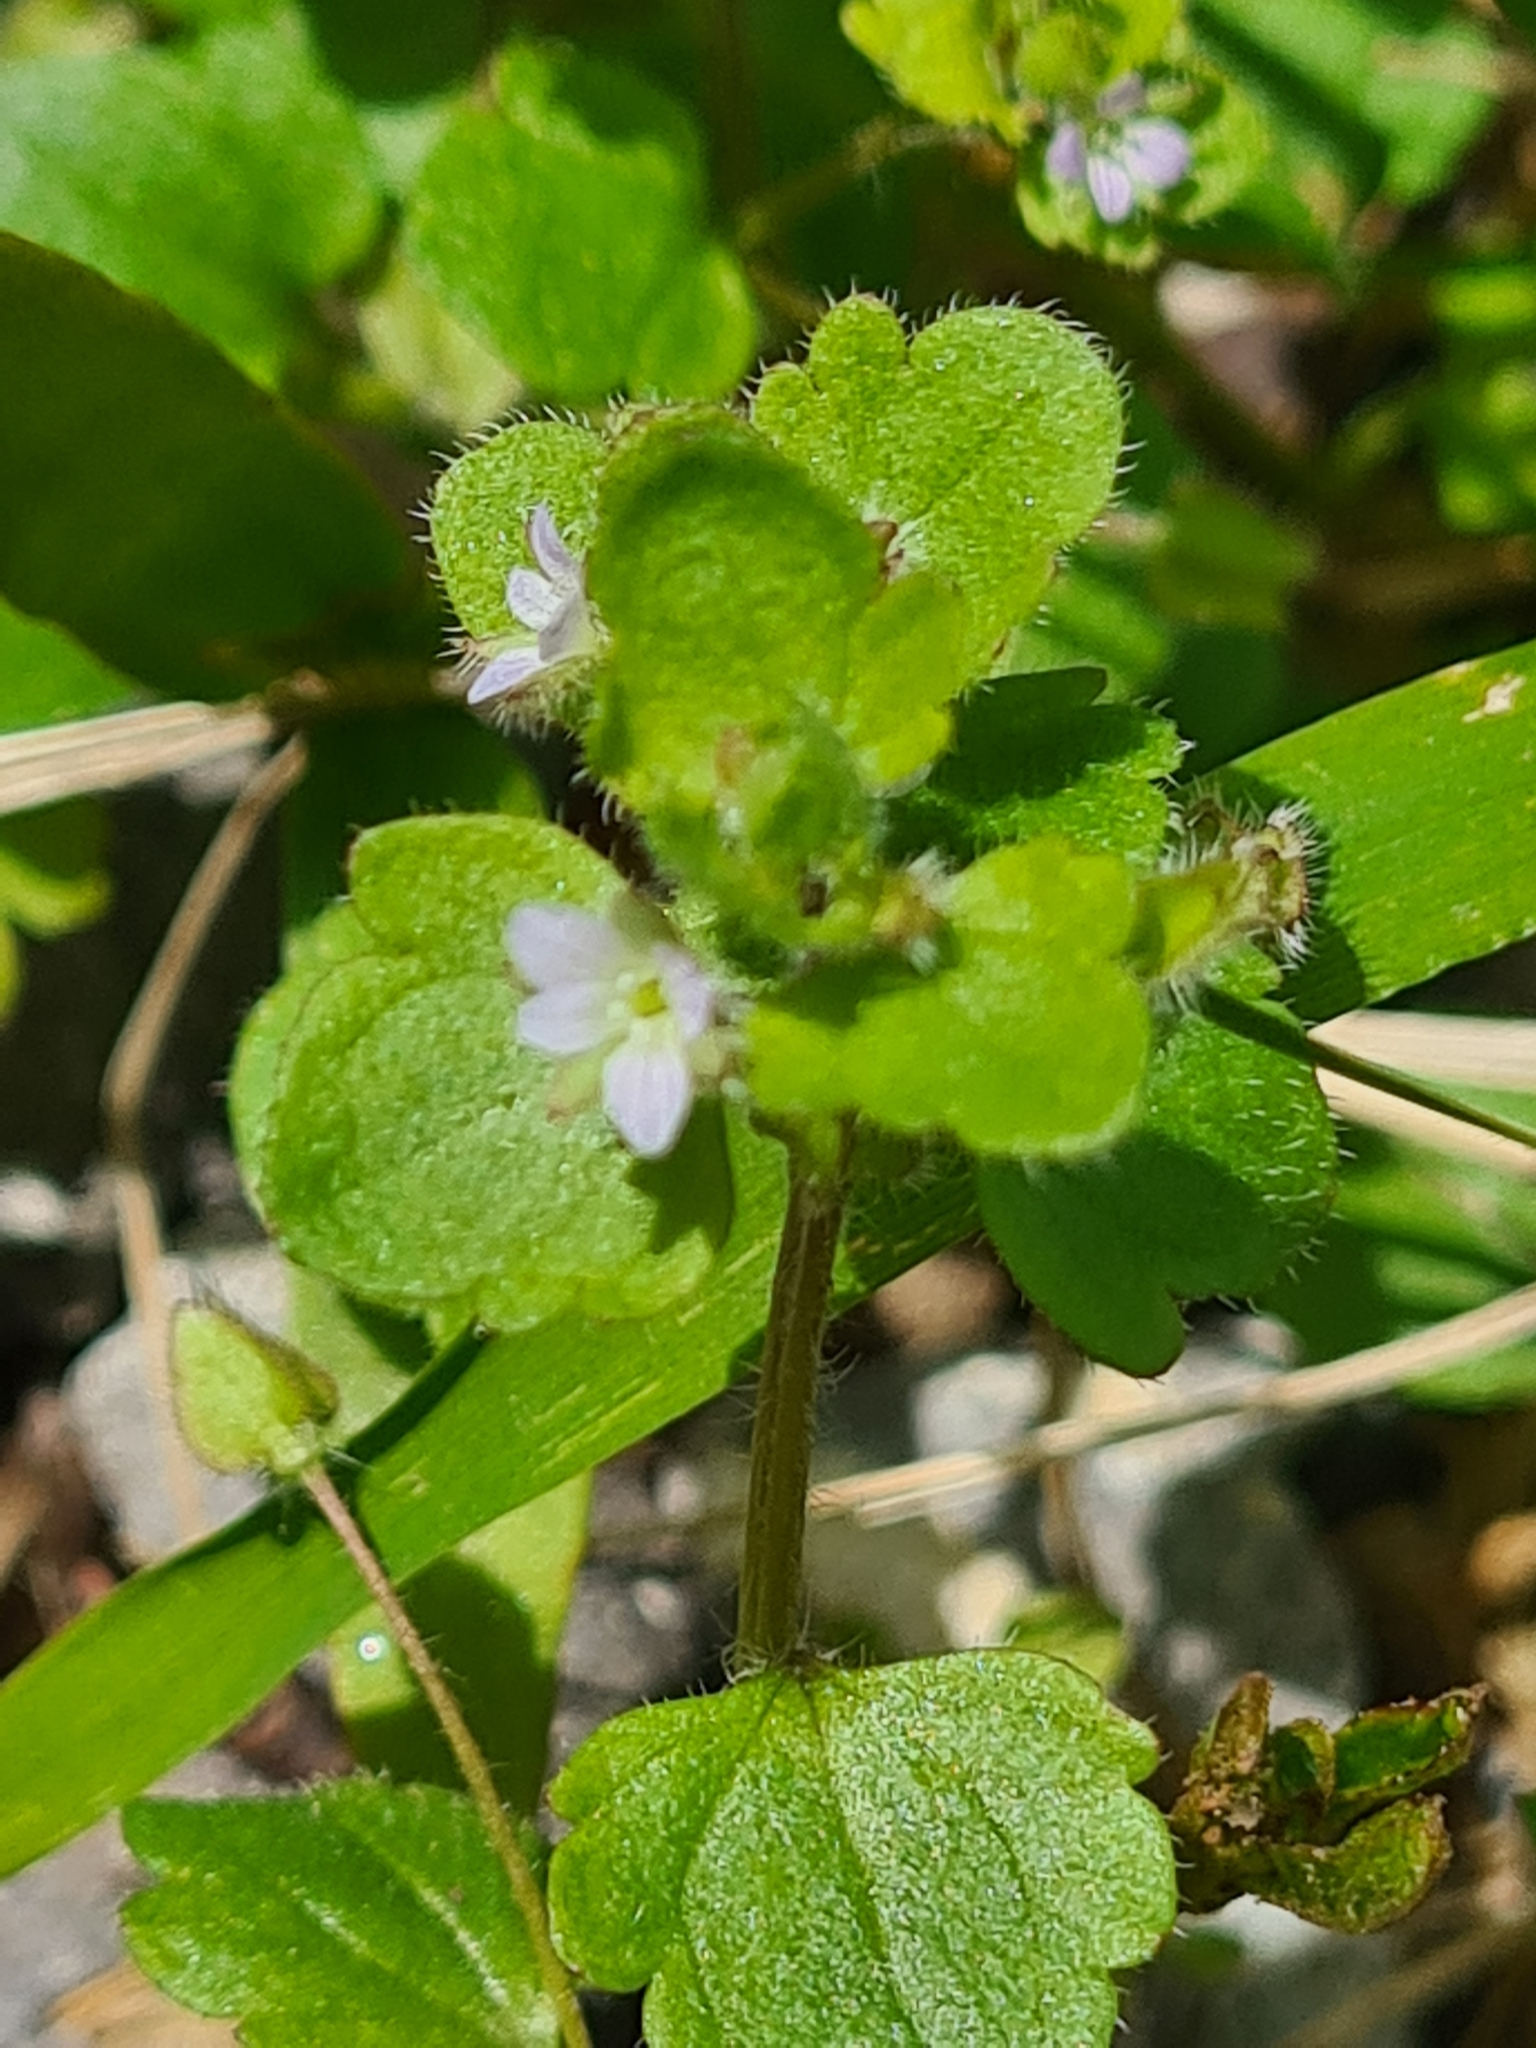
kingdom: Plantae
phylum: Tracheophyta
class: Magnoliopsida
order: Lamiales
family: Plantaginaceae
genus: Veronica
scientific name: Veronica sublobata
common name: False ivy-leaved speedwell
